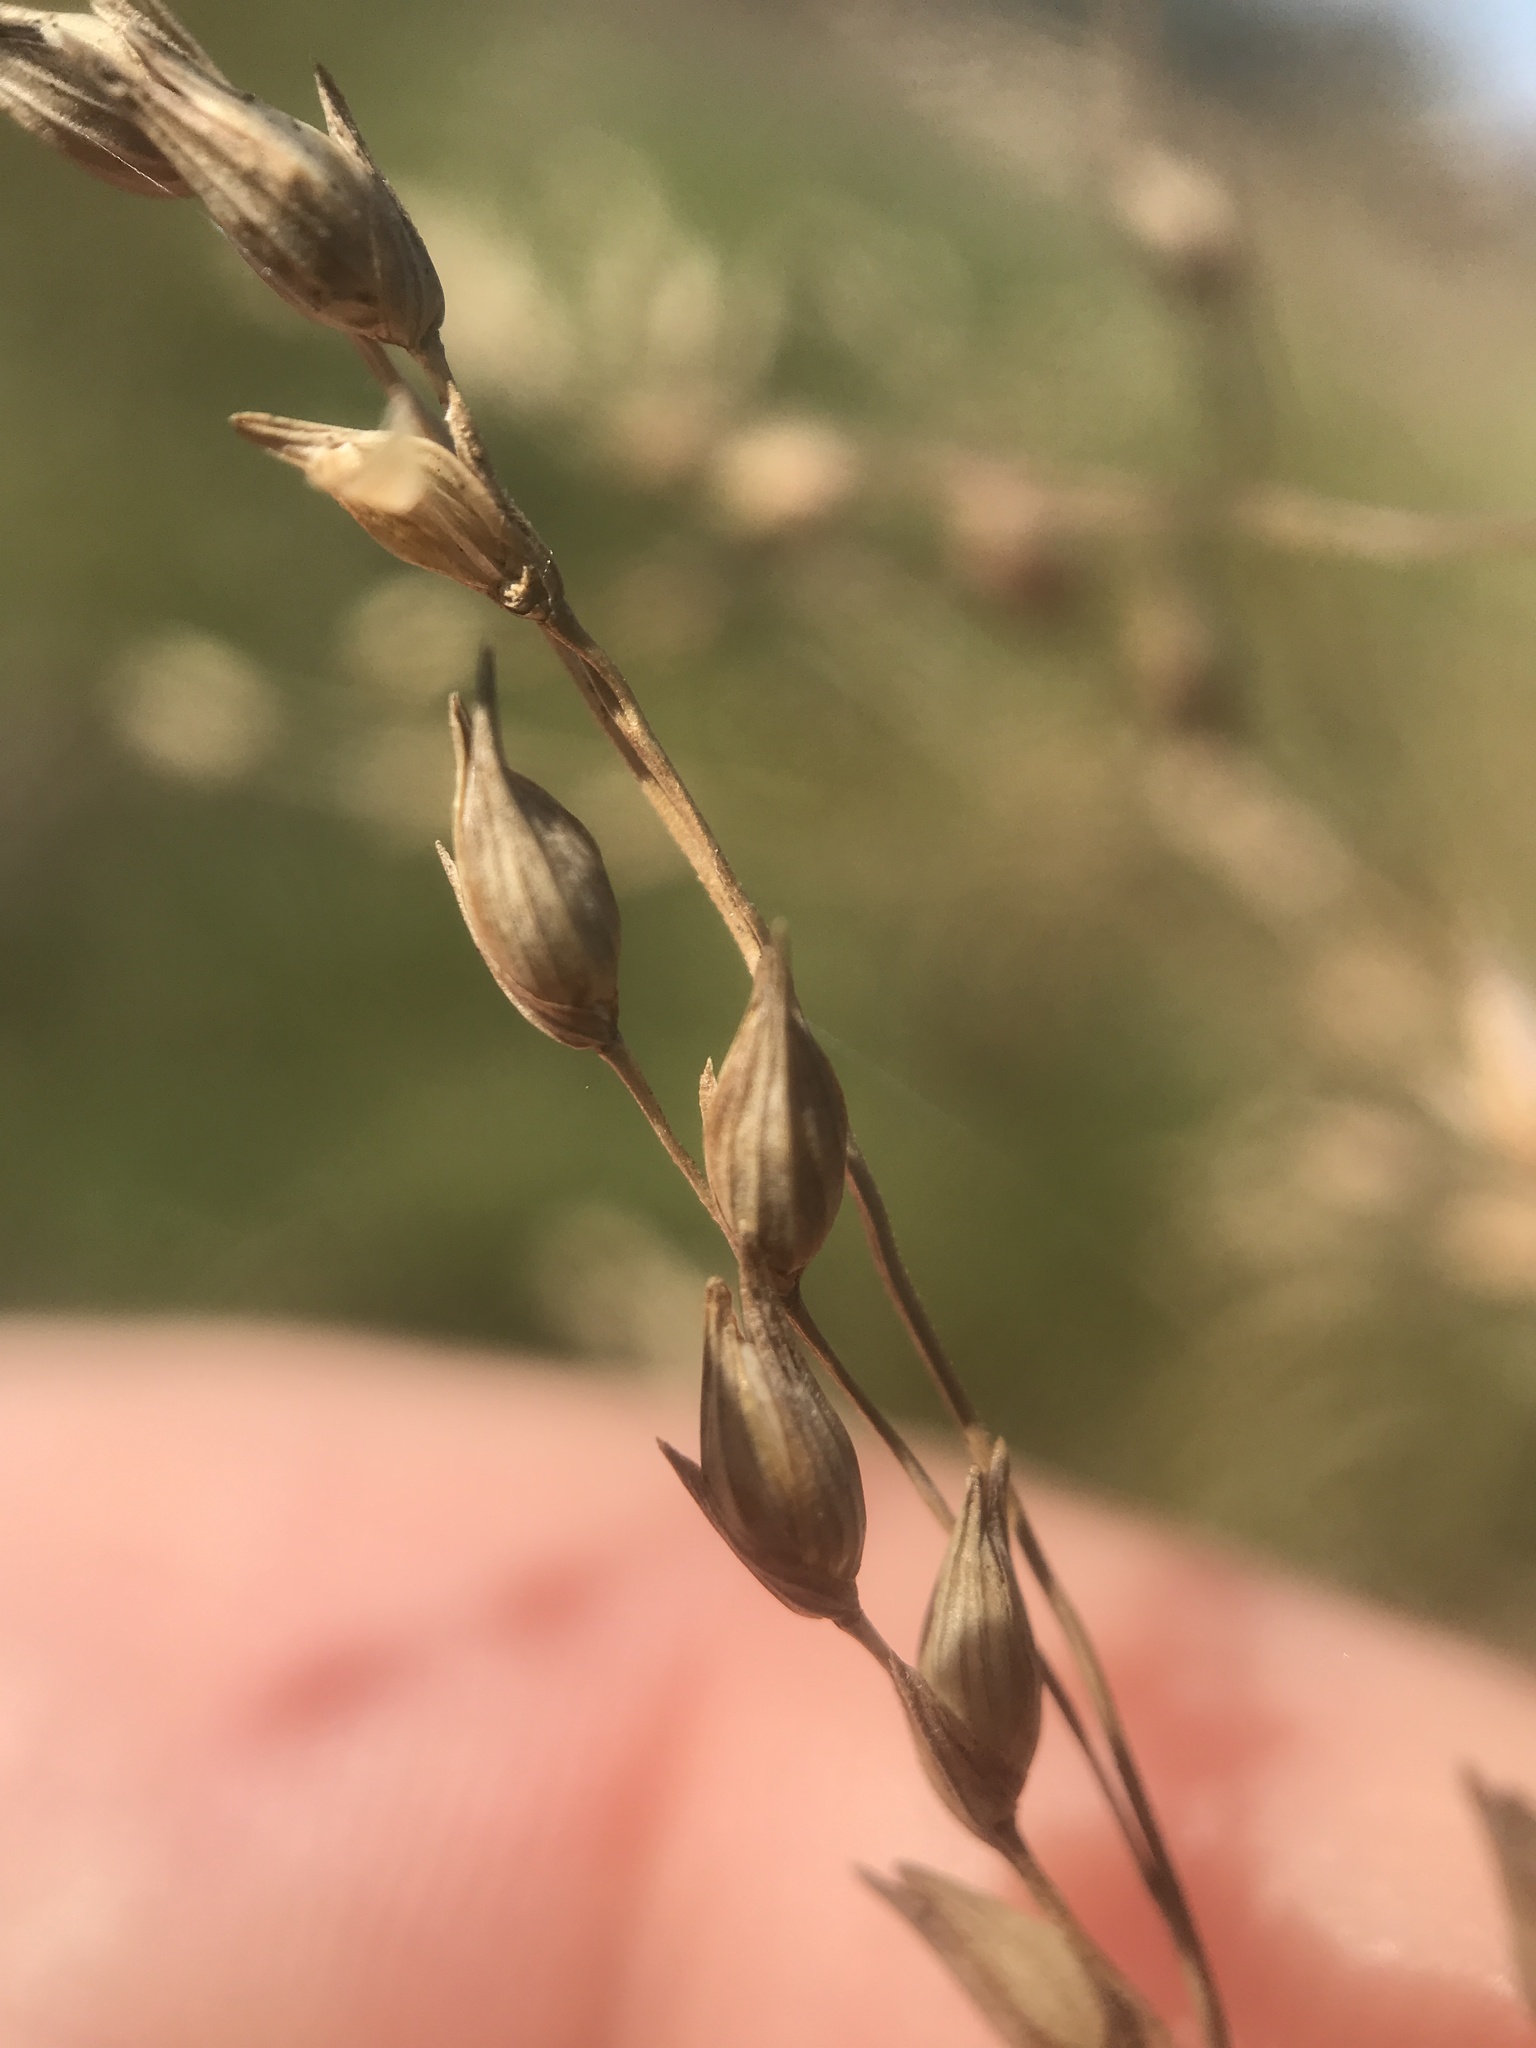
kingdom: Plantae
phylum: Tracheophyta
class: Liliopsida
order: Poales
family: Poaceae
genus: Panicum
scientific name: Panicum virgatum
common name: Switchgrass
